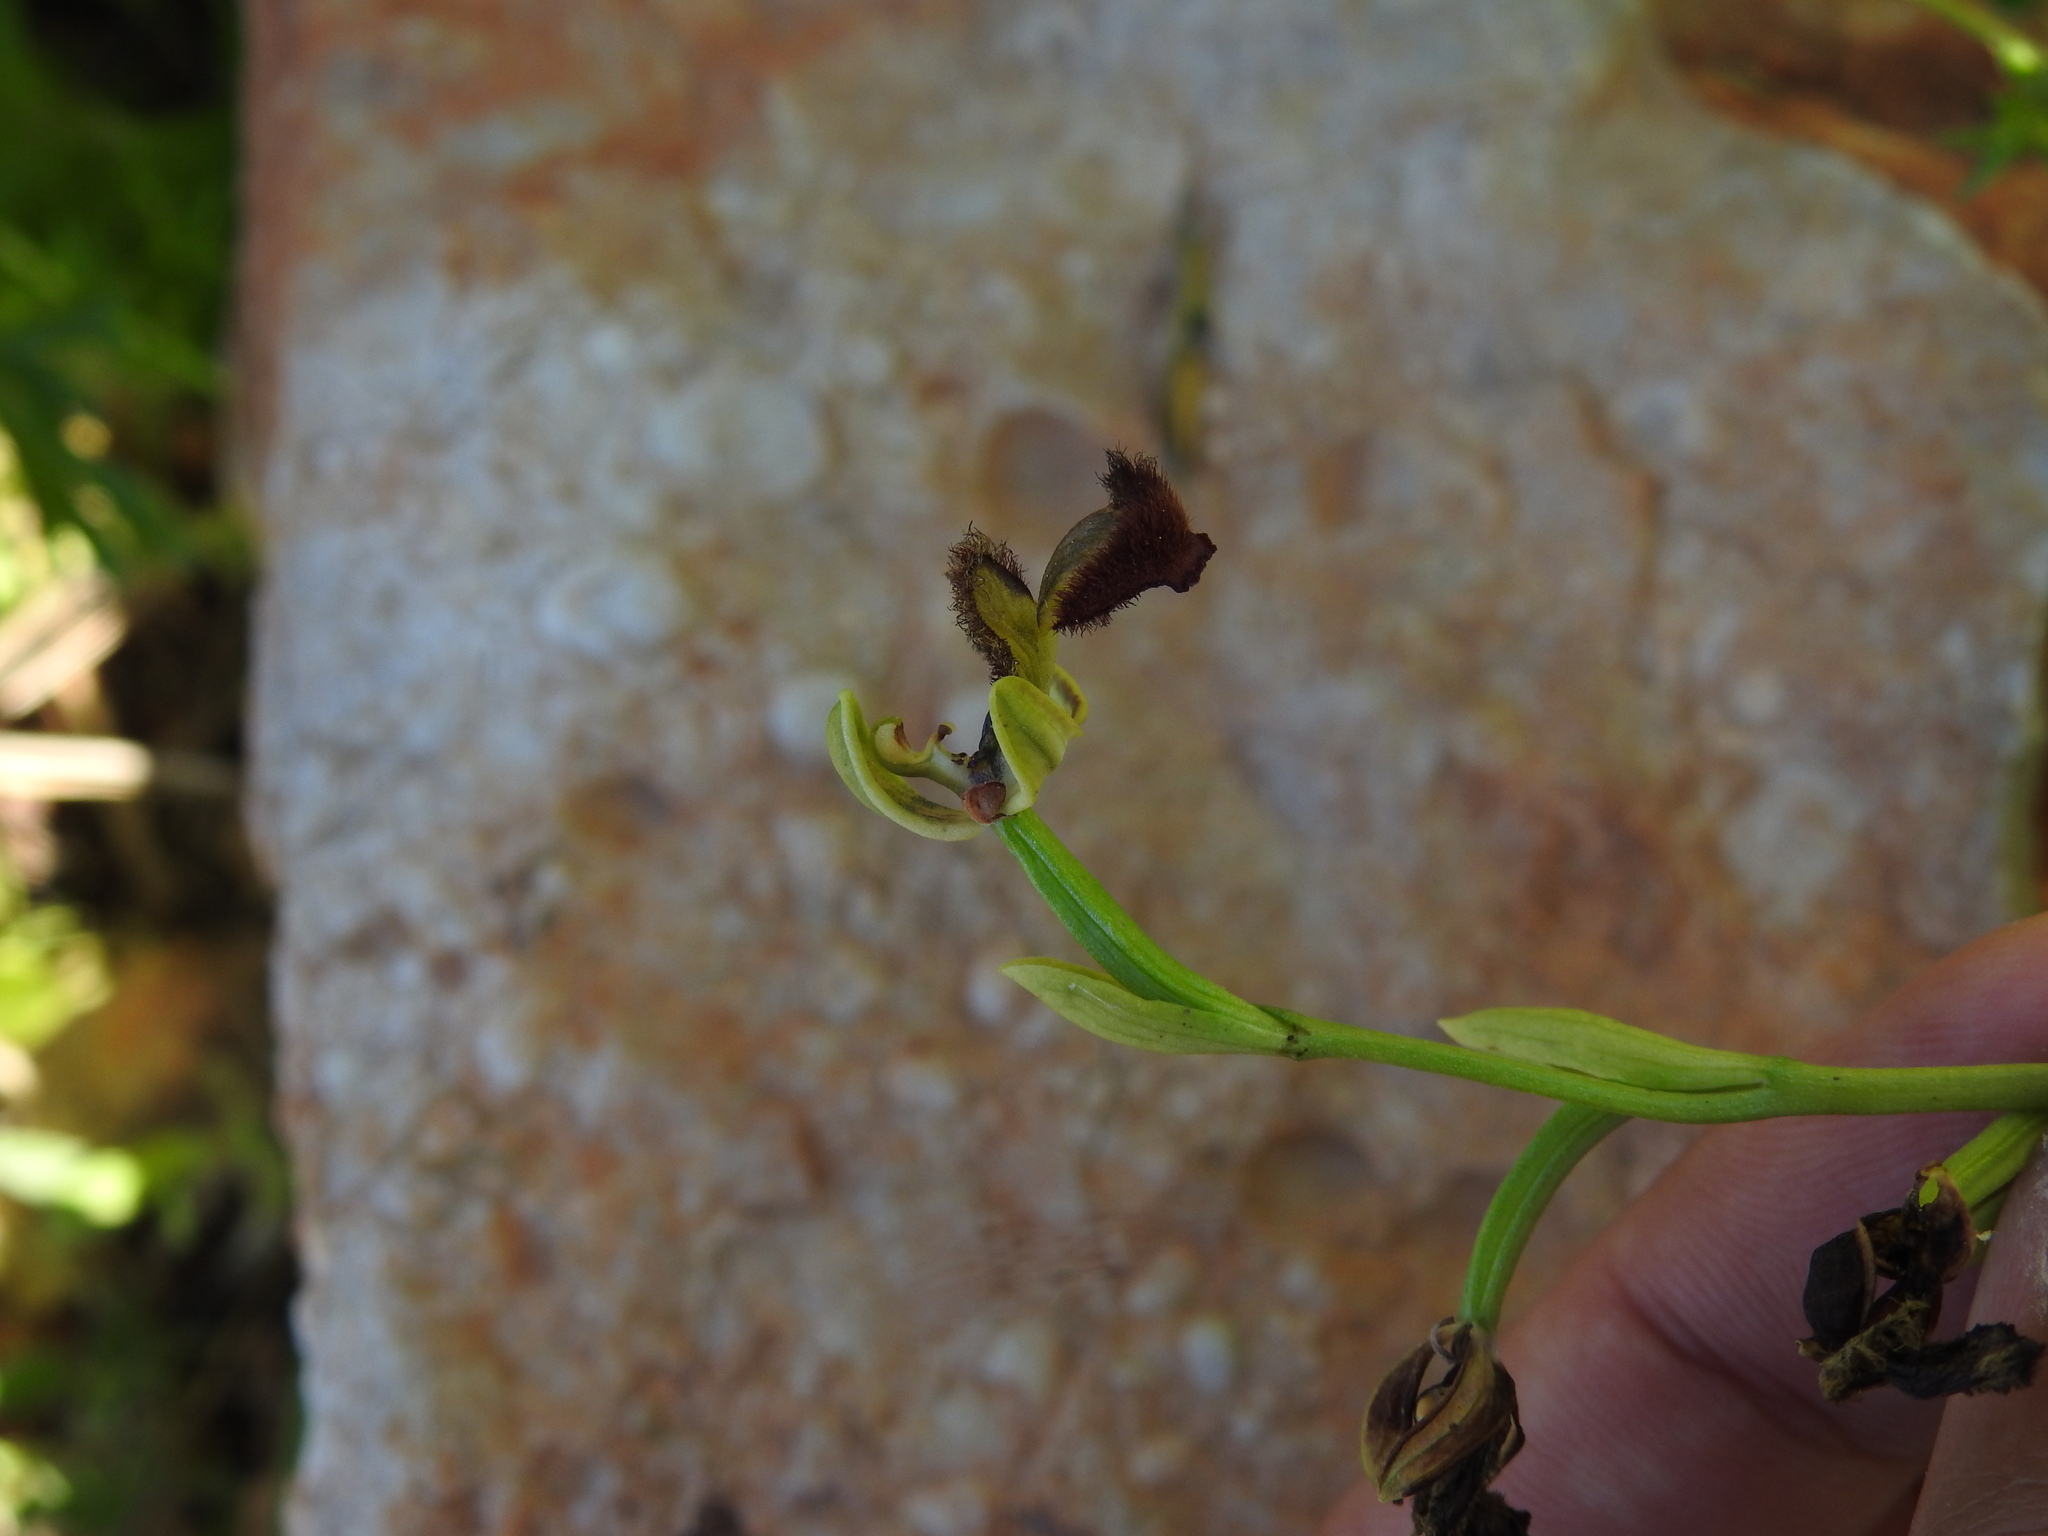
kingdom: Plantae
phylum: Tracheophyta
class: Liliopsida
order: Asparagales
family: Orchidaceae
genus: Ophrys
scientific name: Ophrys speculum
